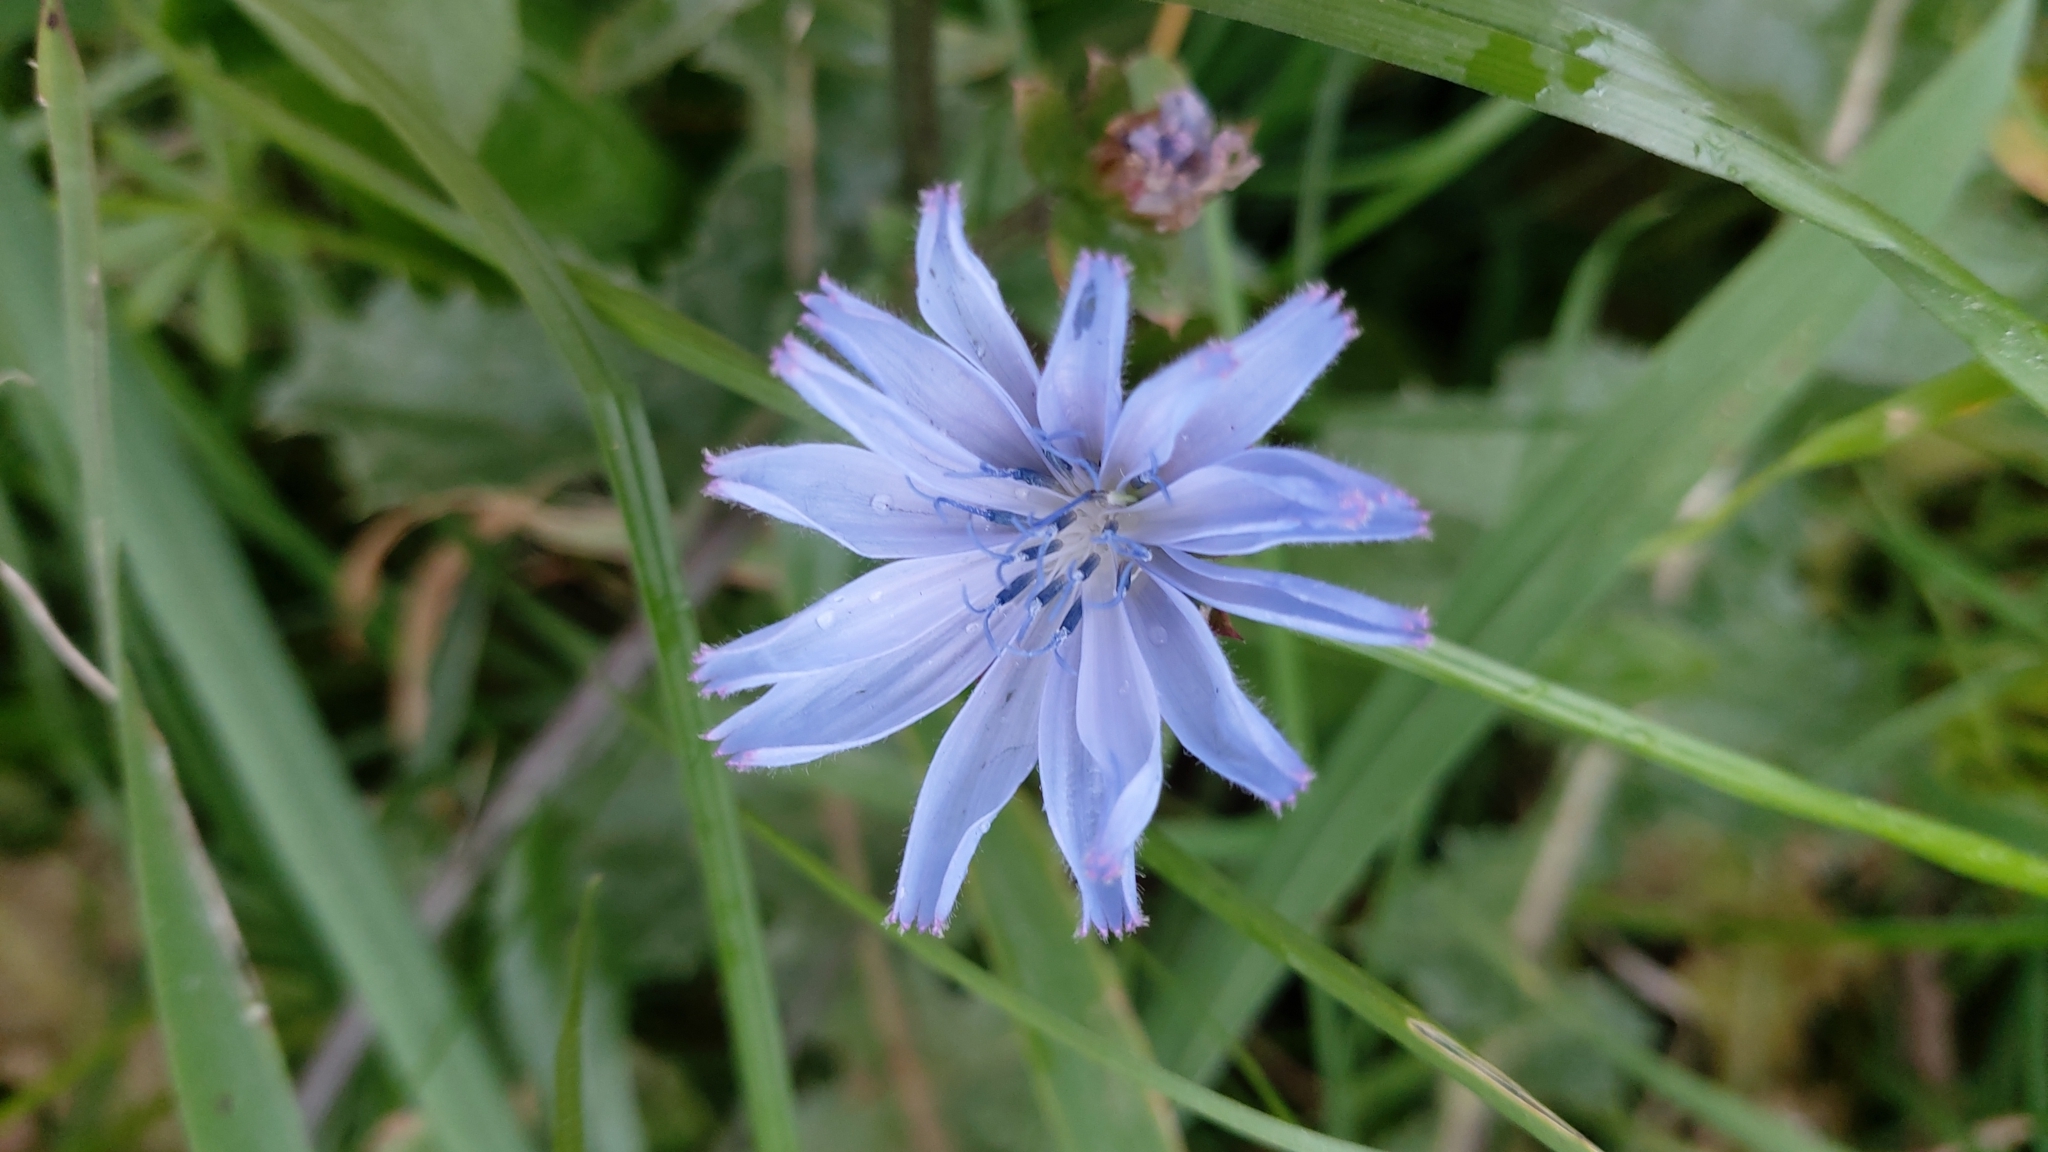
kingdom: Plantae
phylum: Tracheophyta
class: Magnoliopsida
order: Asterales
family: Asteraceae
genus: Cichorium
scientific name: Cichorium intybus
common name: Chicory
